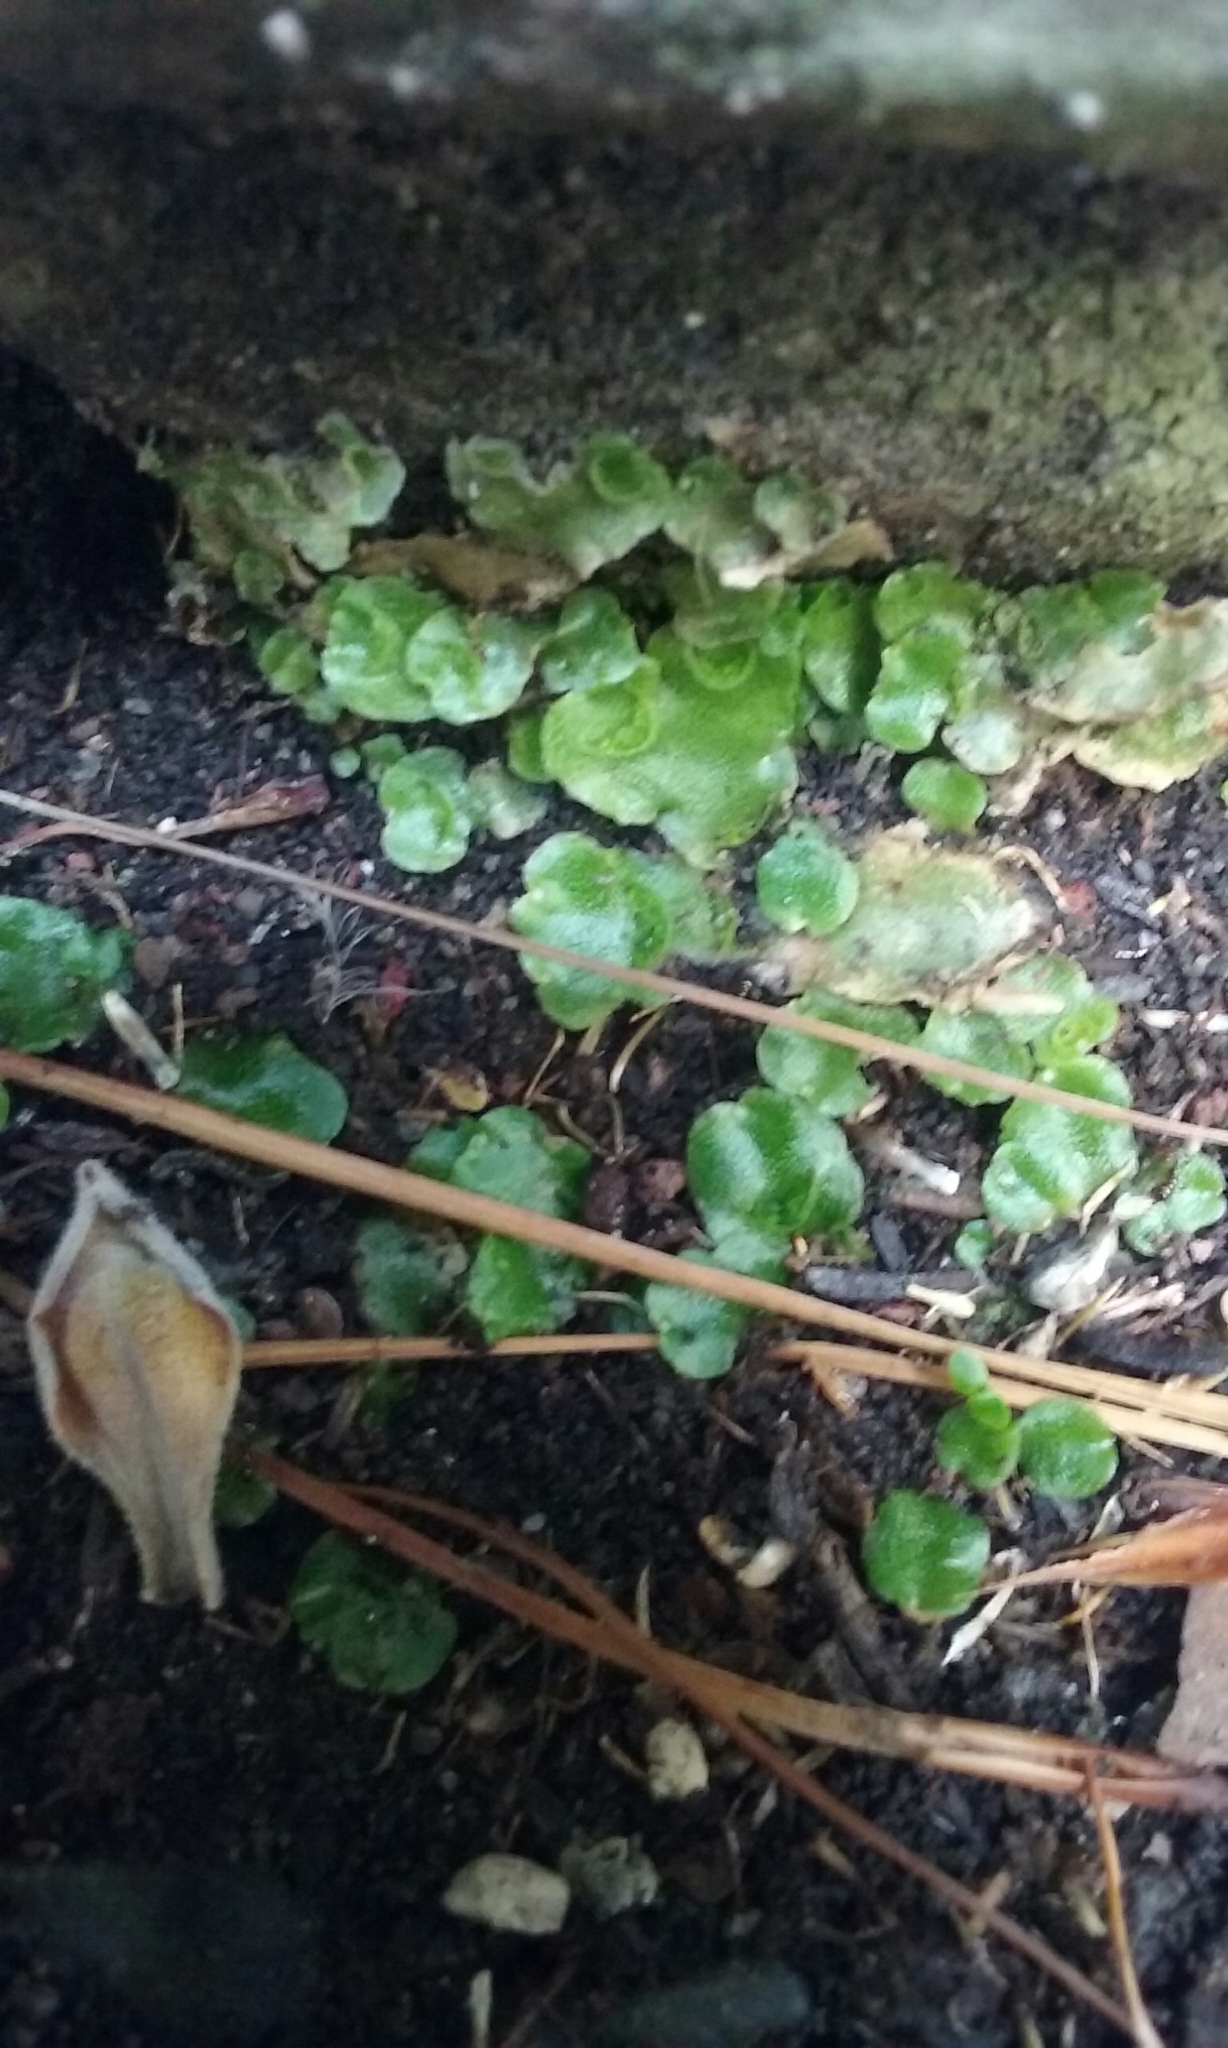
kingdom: Plantae
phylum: Marchantiophyta
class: Marchantiopsida
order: Lunulariales
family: Lunulariaceae
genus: Lunularia
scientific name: Lunularia cruciata
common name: Crescent-cup liverwort
